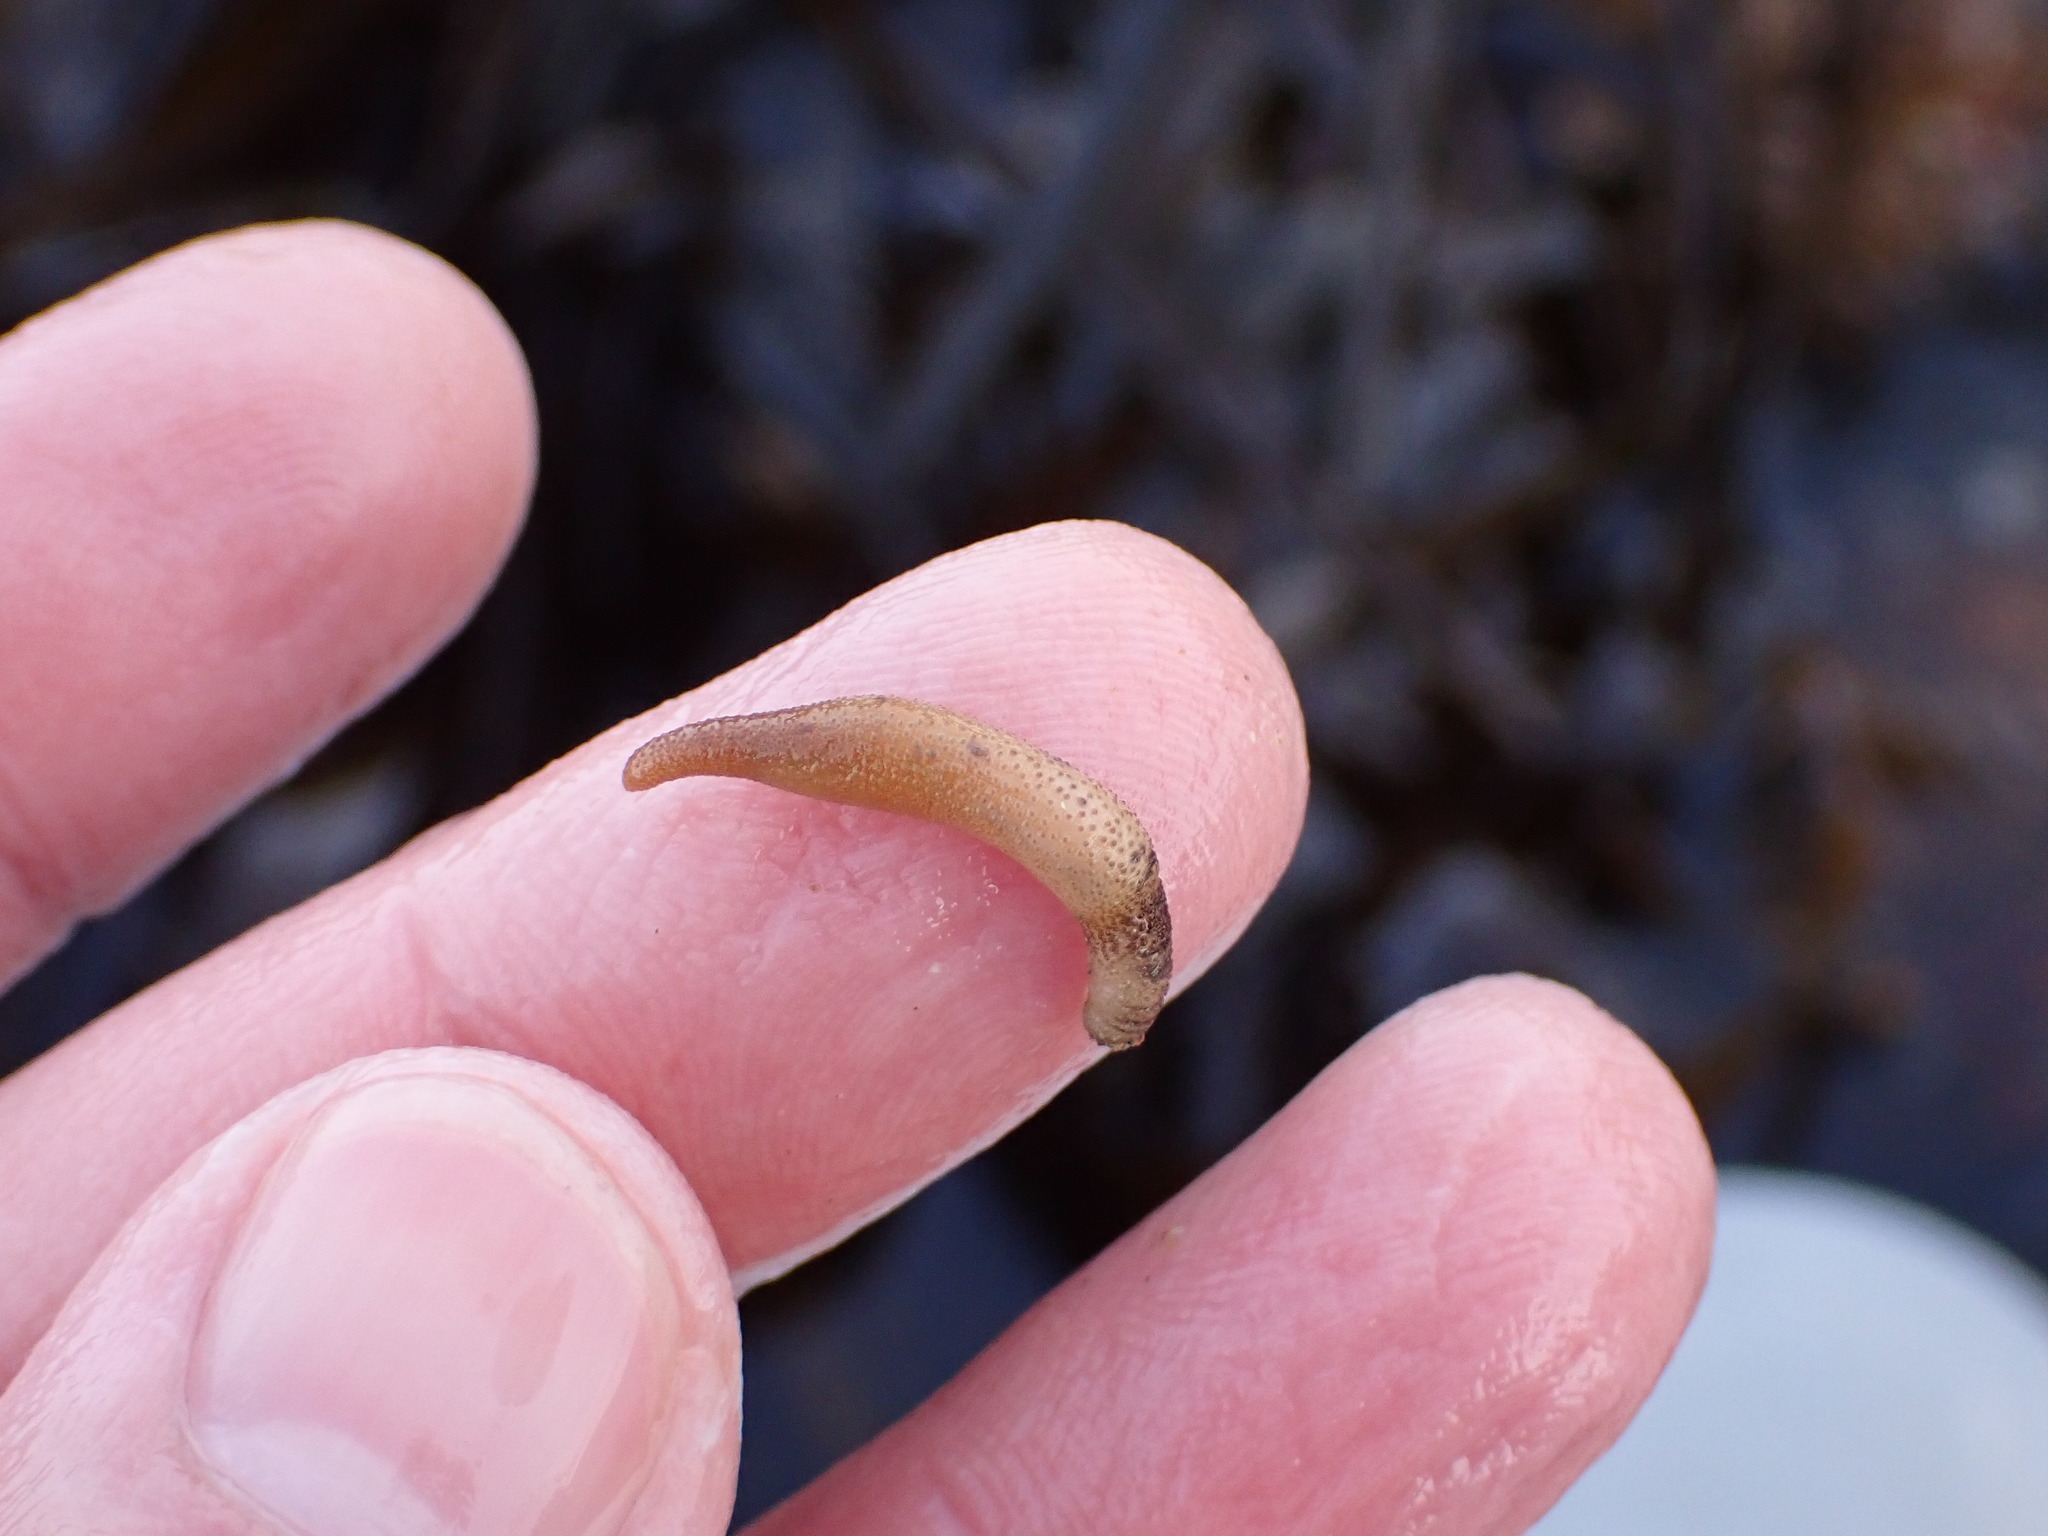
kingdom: Animalia
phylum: Sipuncula
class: Phascolosomatidea
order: Phascolosomatiformes
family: Phascolosomatidae
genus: Phascolosoma
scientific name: Phascolosoma agassizii
